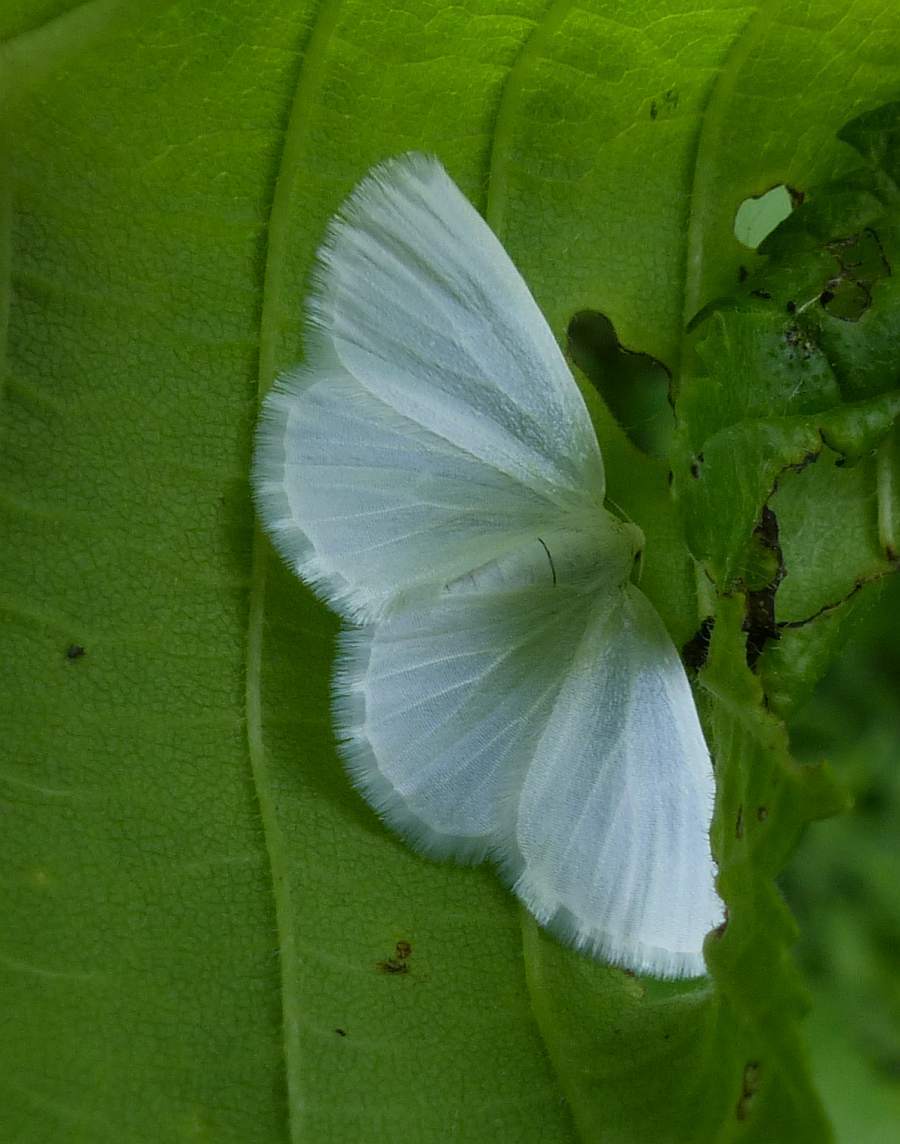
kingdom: Animalia
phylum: Arthropoda
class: Insecta
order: Lepidoptera
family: Geometridae
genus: Lomographa
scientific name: Lomographa vestaliata
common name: White spring moth
